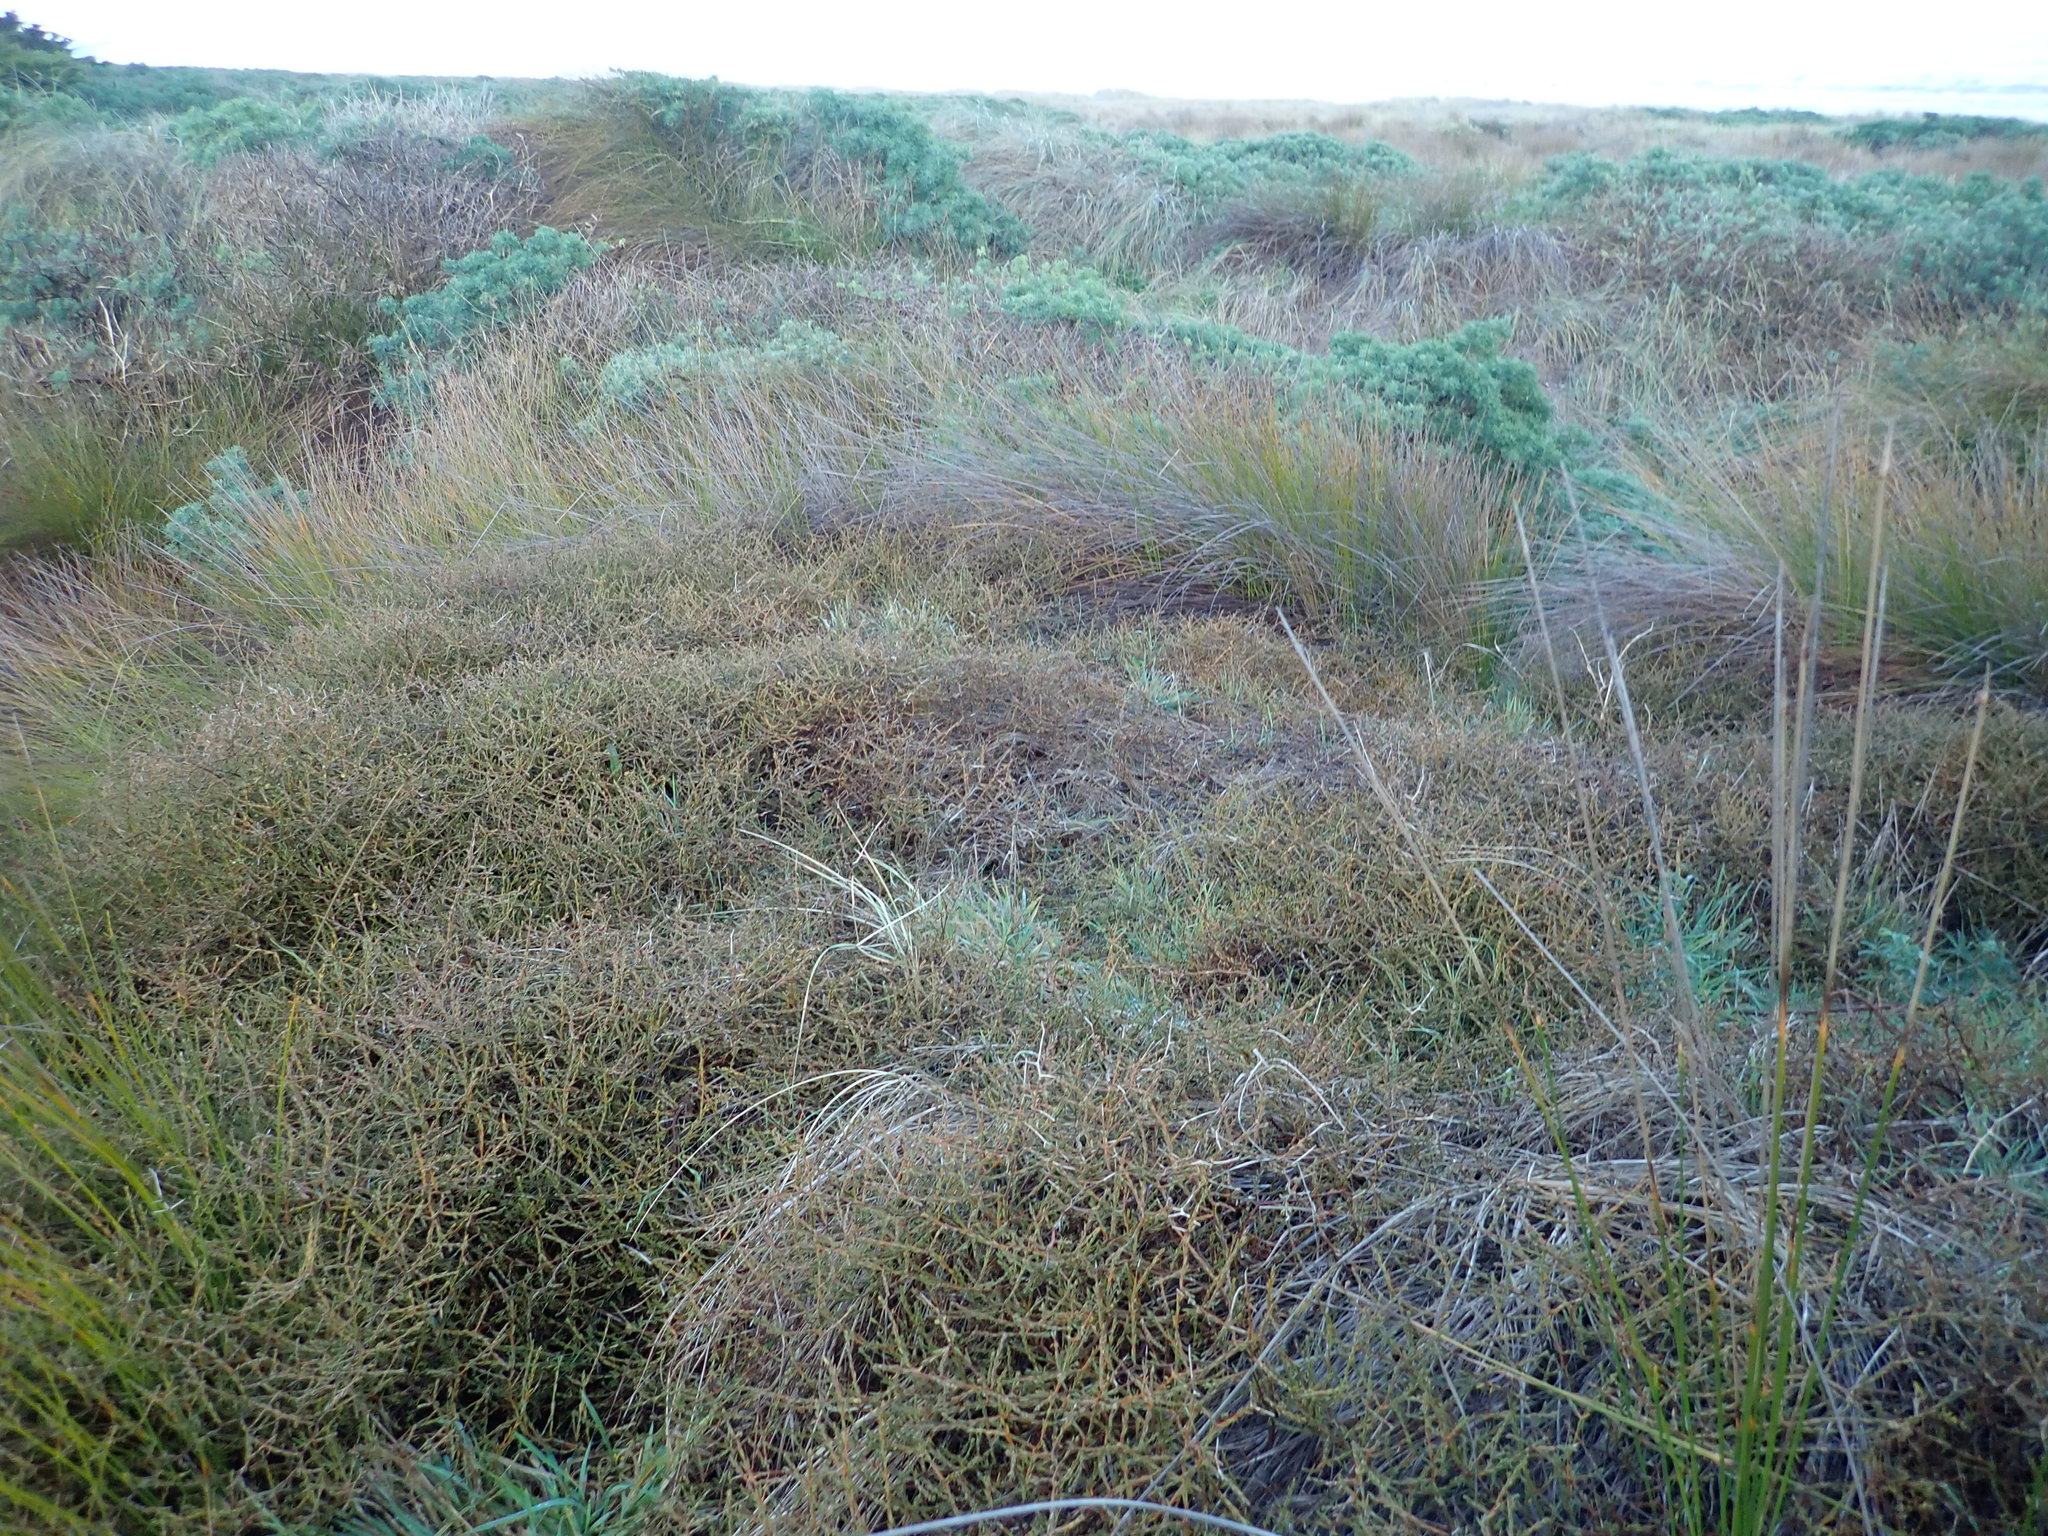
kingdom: Plantae
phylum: Tracheophyta
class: Magnoliopsida
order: Caryophyllales
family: Polygonaceae
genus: Muehlenbeckia
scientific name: Muehlenbeckia complexa
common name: Wireplant
